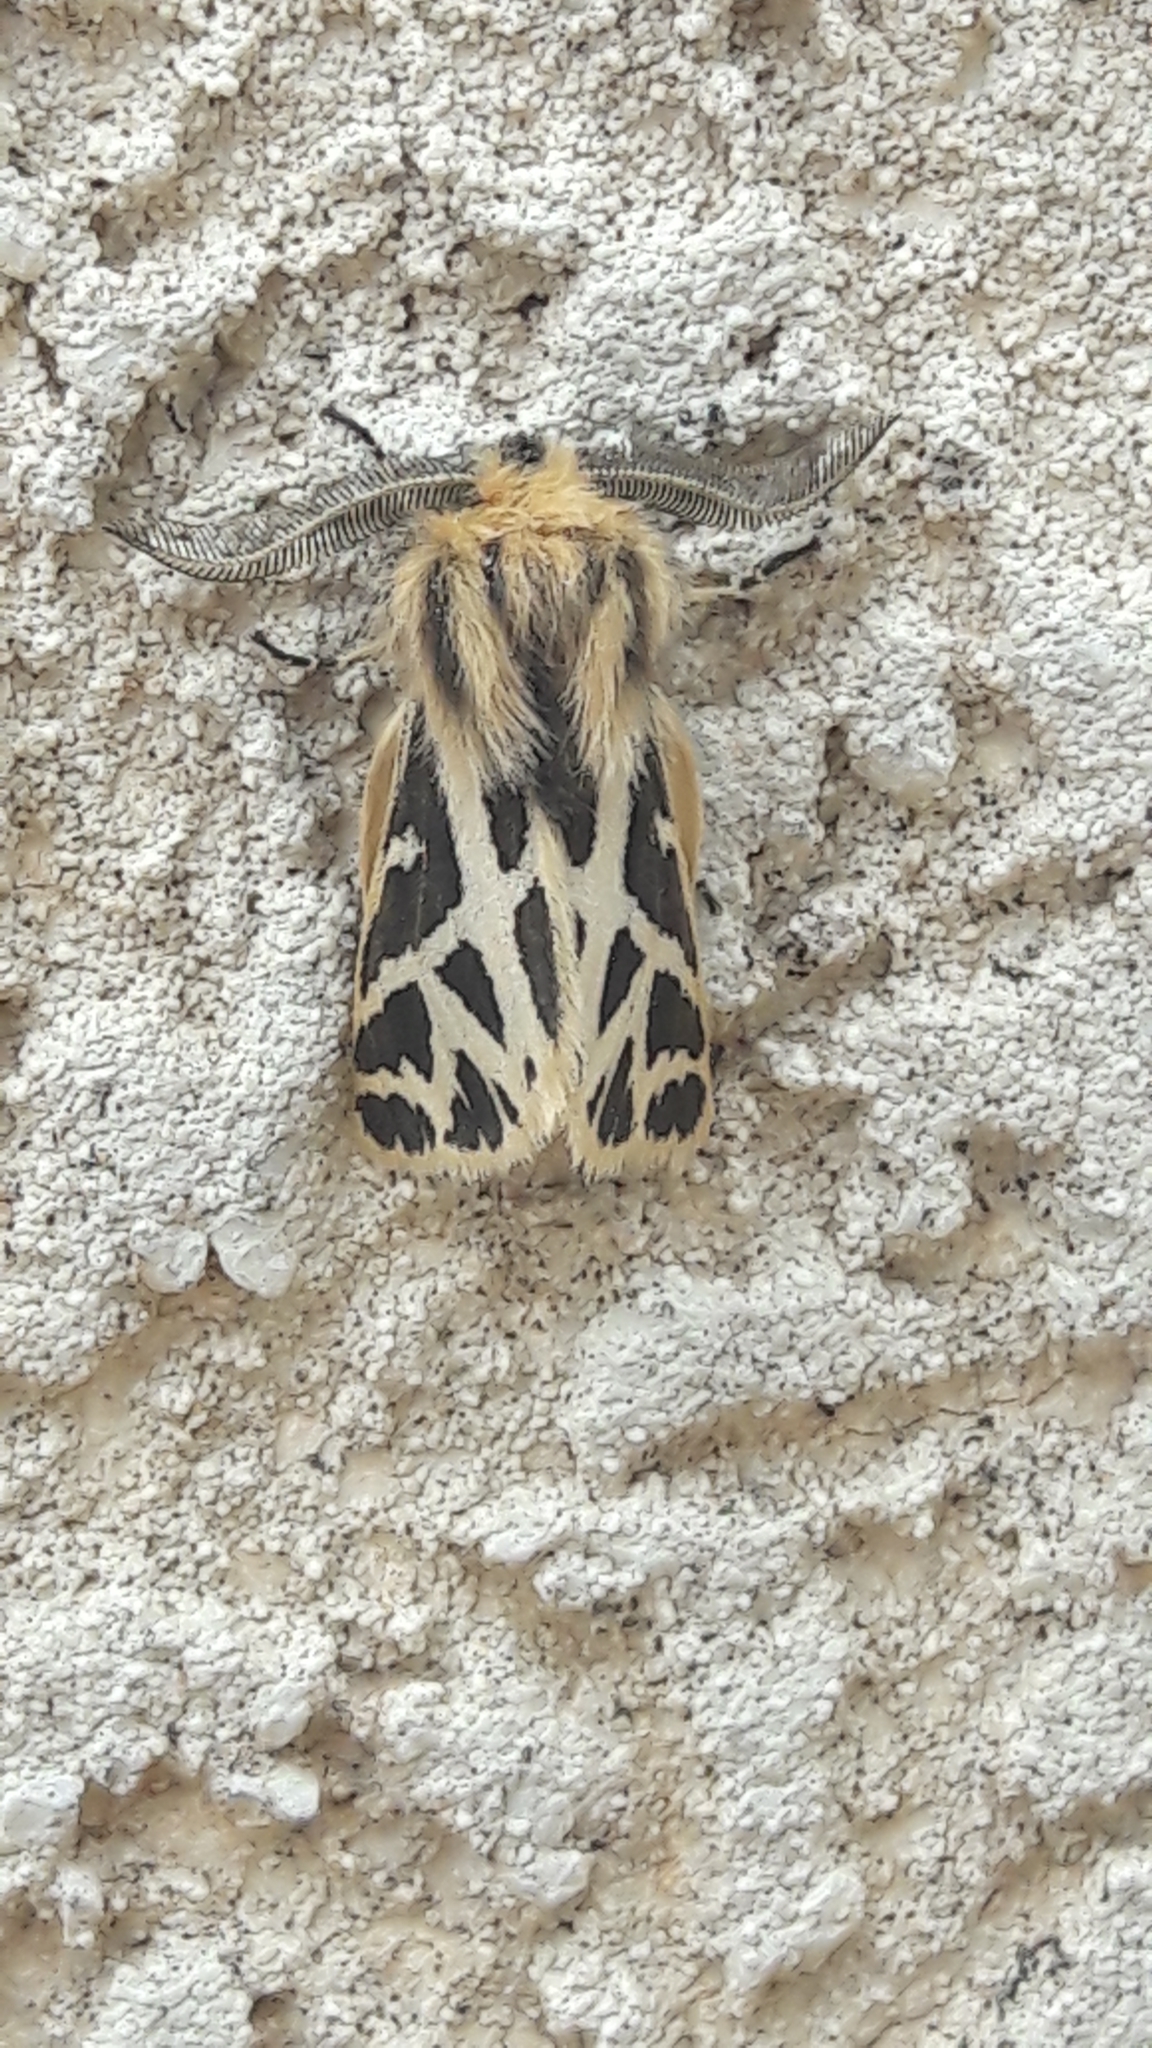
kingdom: Animalia
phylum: Arthropoda
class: Insecta
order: Lepidoptera
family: Erebidae
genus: Ocnogyna
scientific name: Ocnogyna loewii
